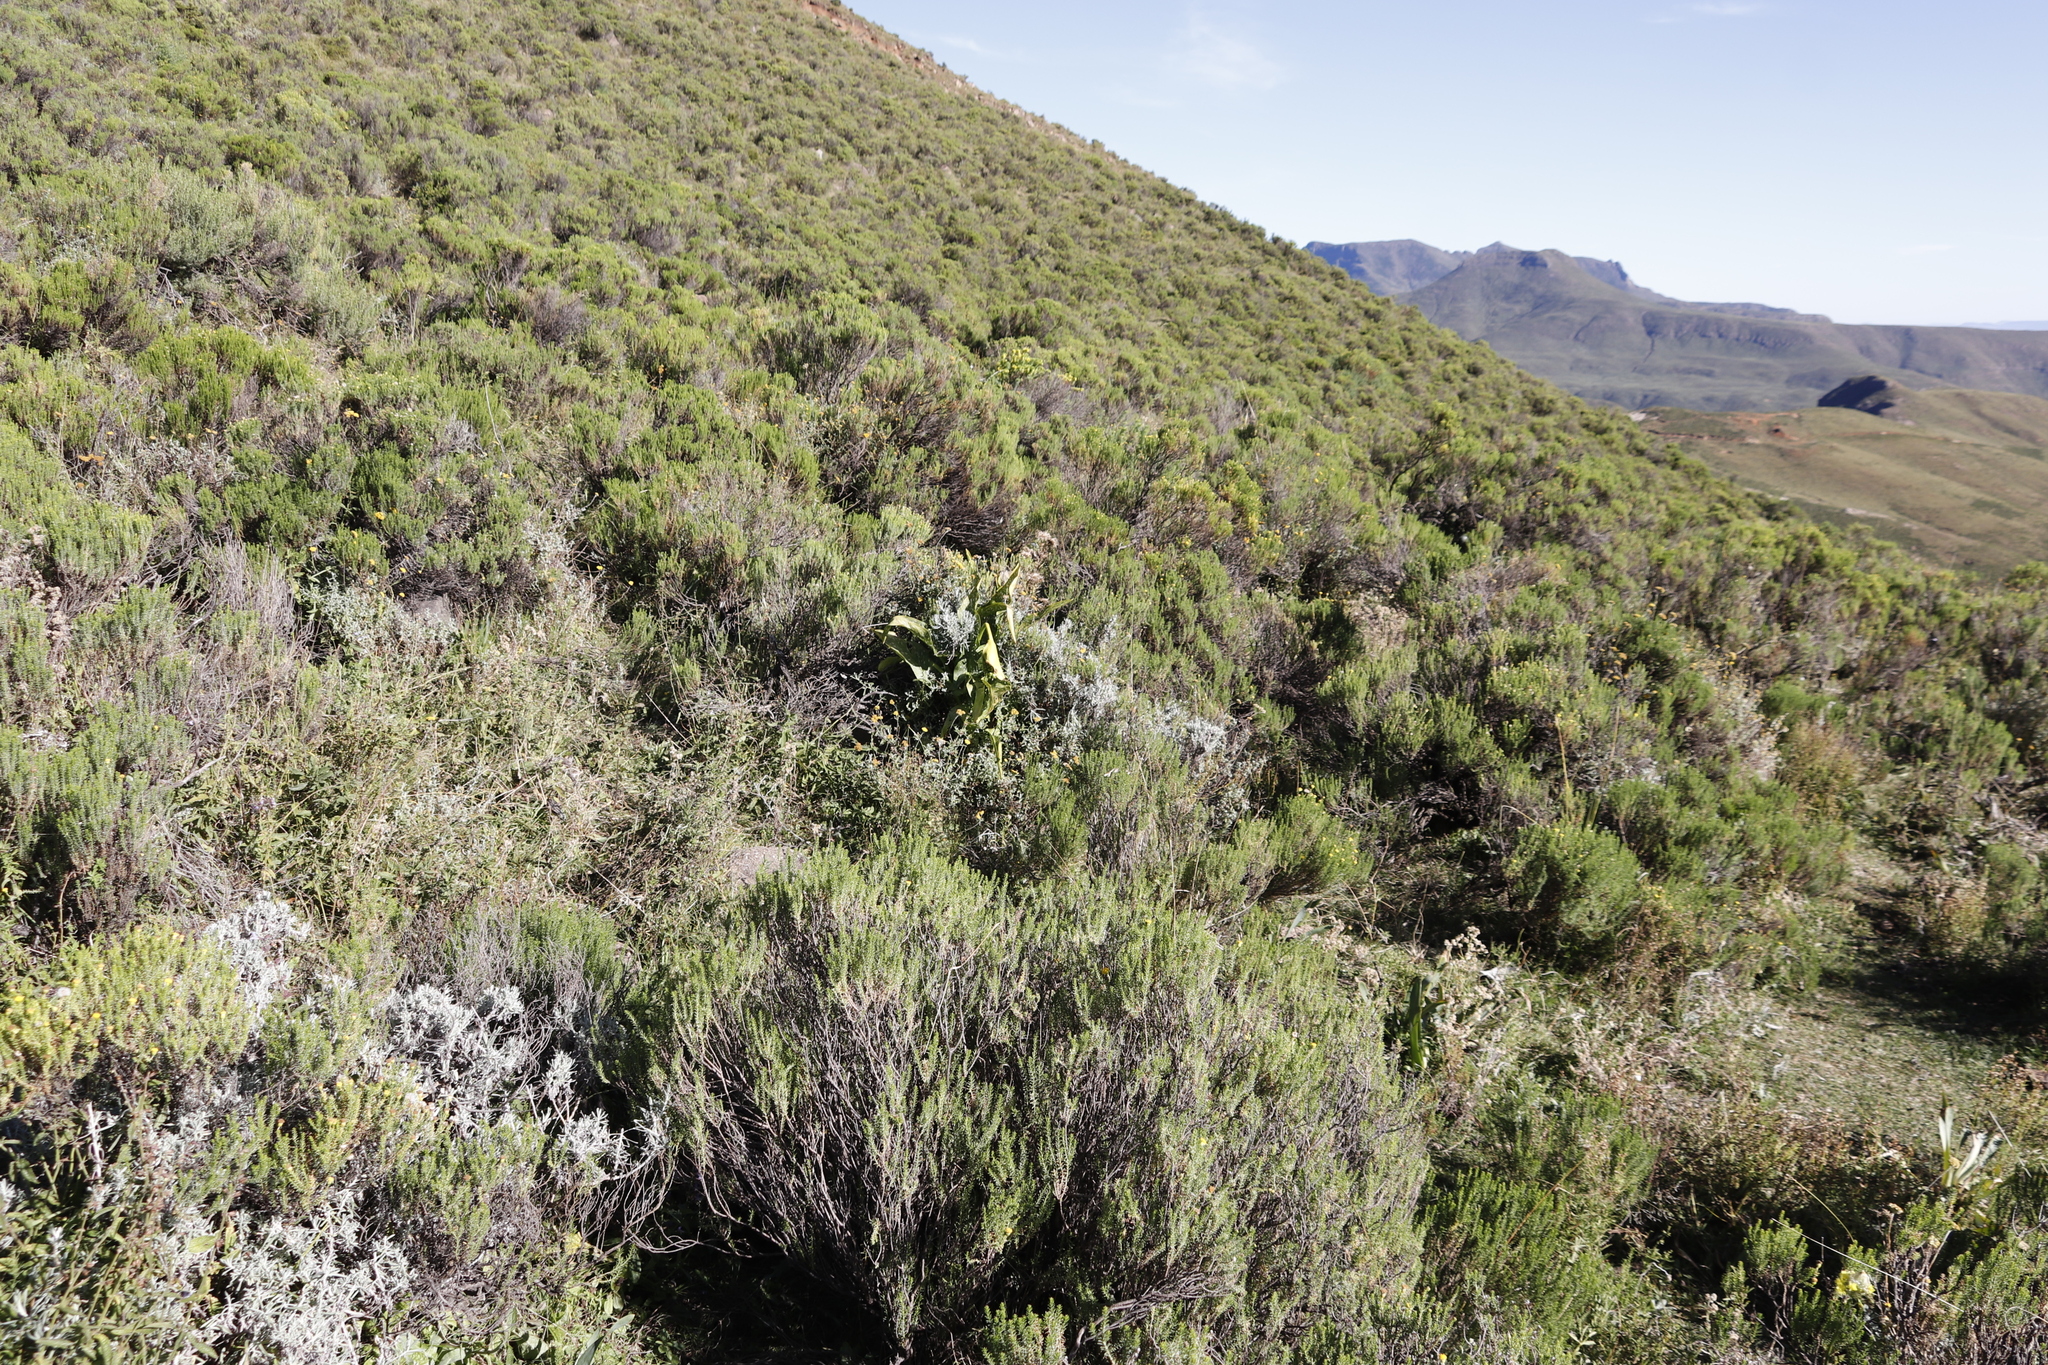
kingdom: Plantae
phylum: Tracheophyta
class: Liliopsida
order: Alismatales
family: Araceae
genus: Zantedeschia
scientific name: Zantedeschia albomaculata
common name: Spotted calla lily
